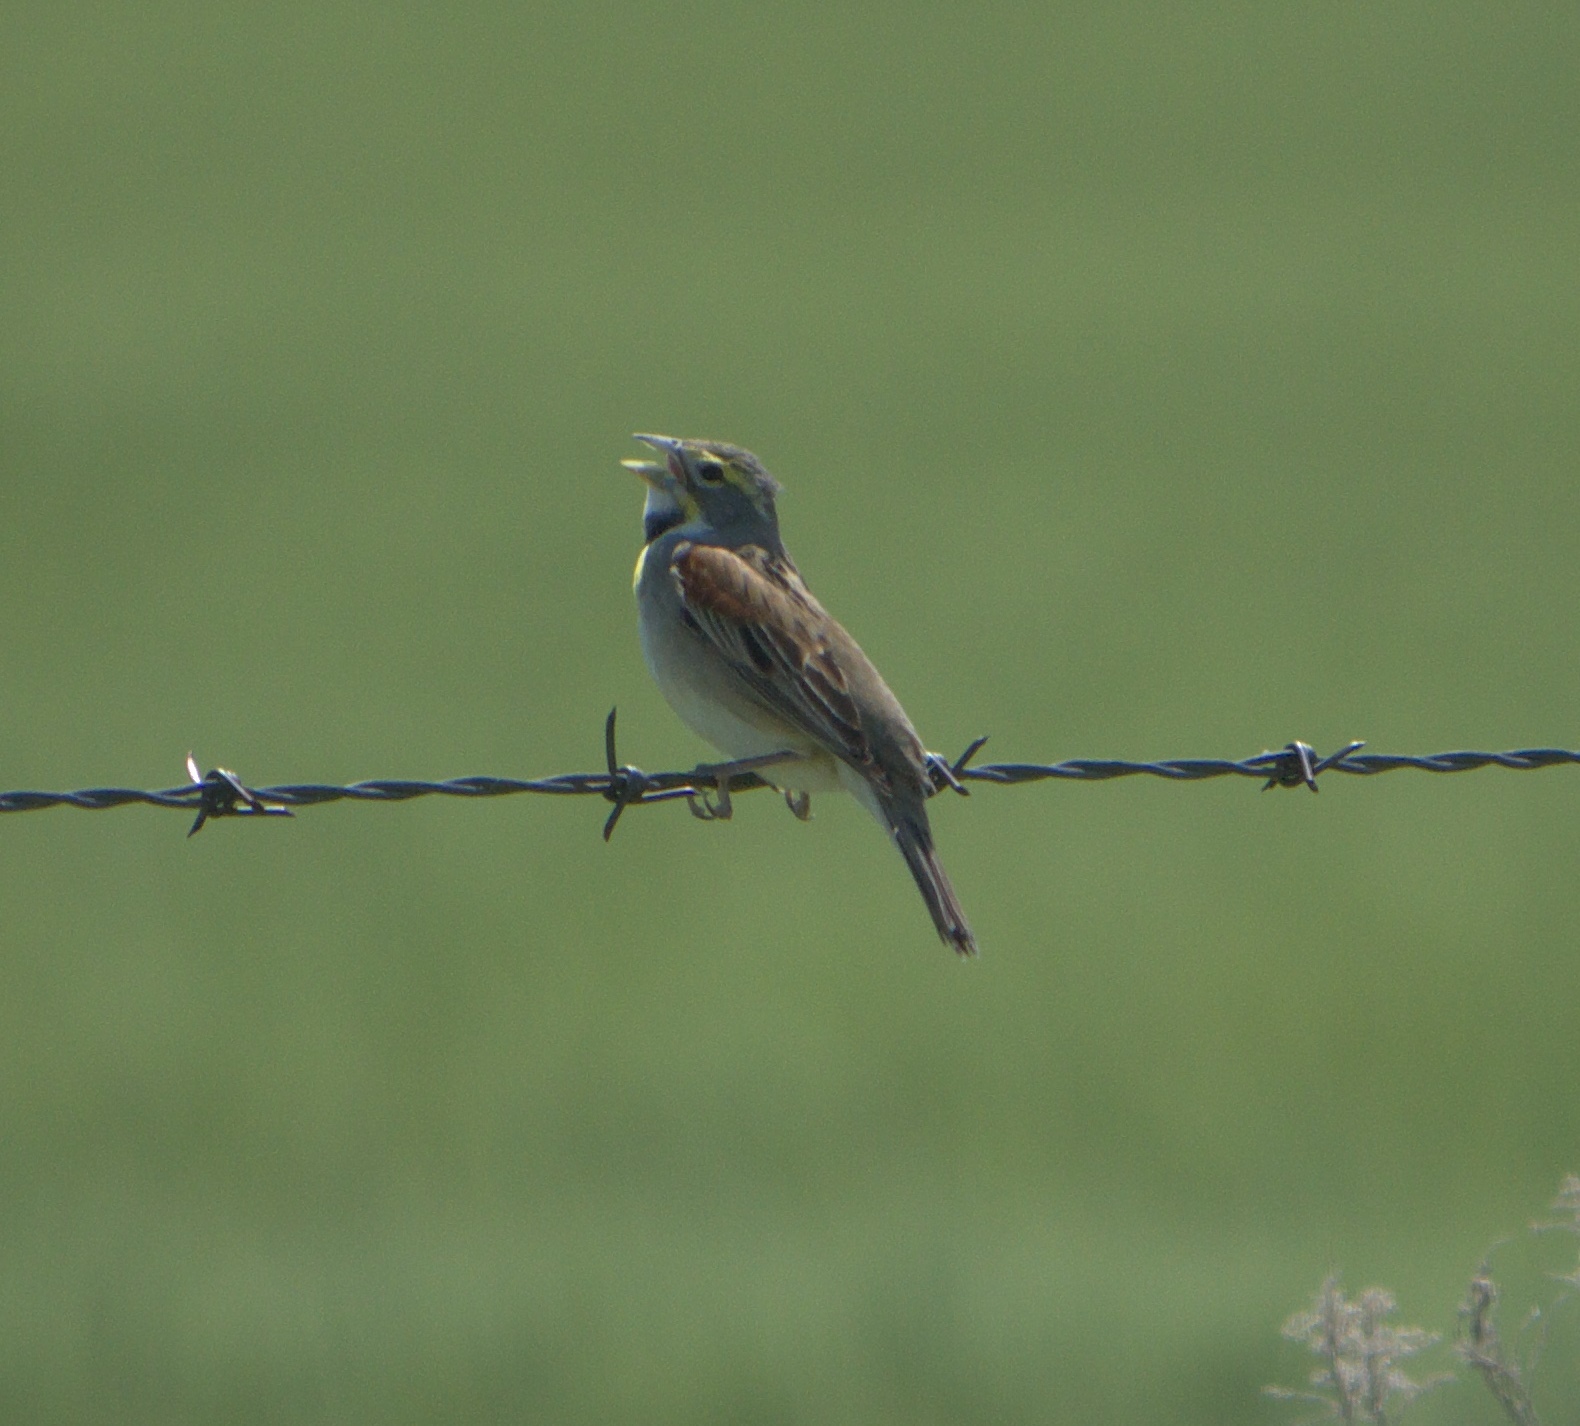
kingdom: Animalia
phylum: Chordata
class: Aves
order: Passeriformes
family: Cardinalidae
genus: Spiza
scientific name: Spiza americana
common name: Dickcissel
